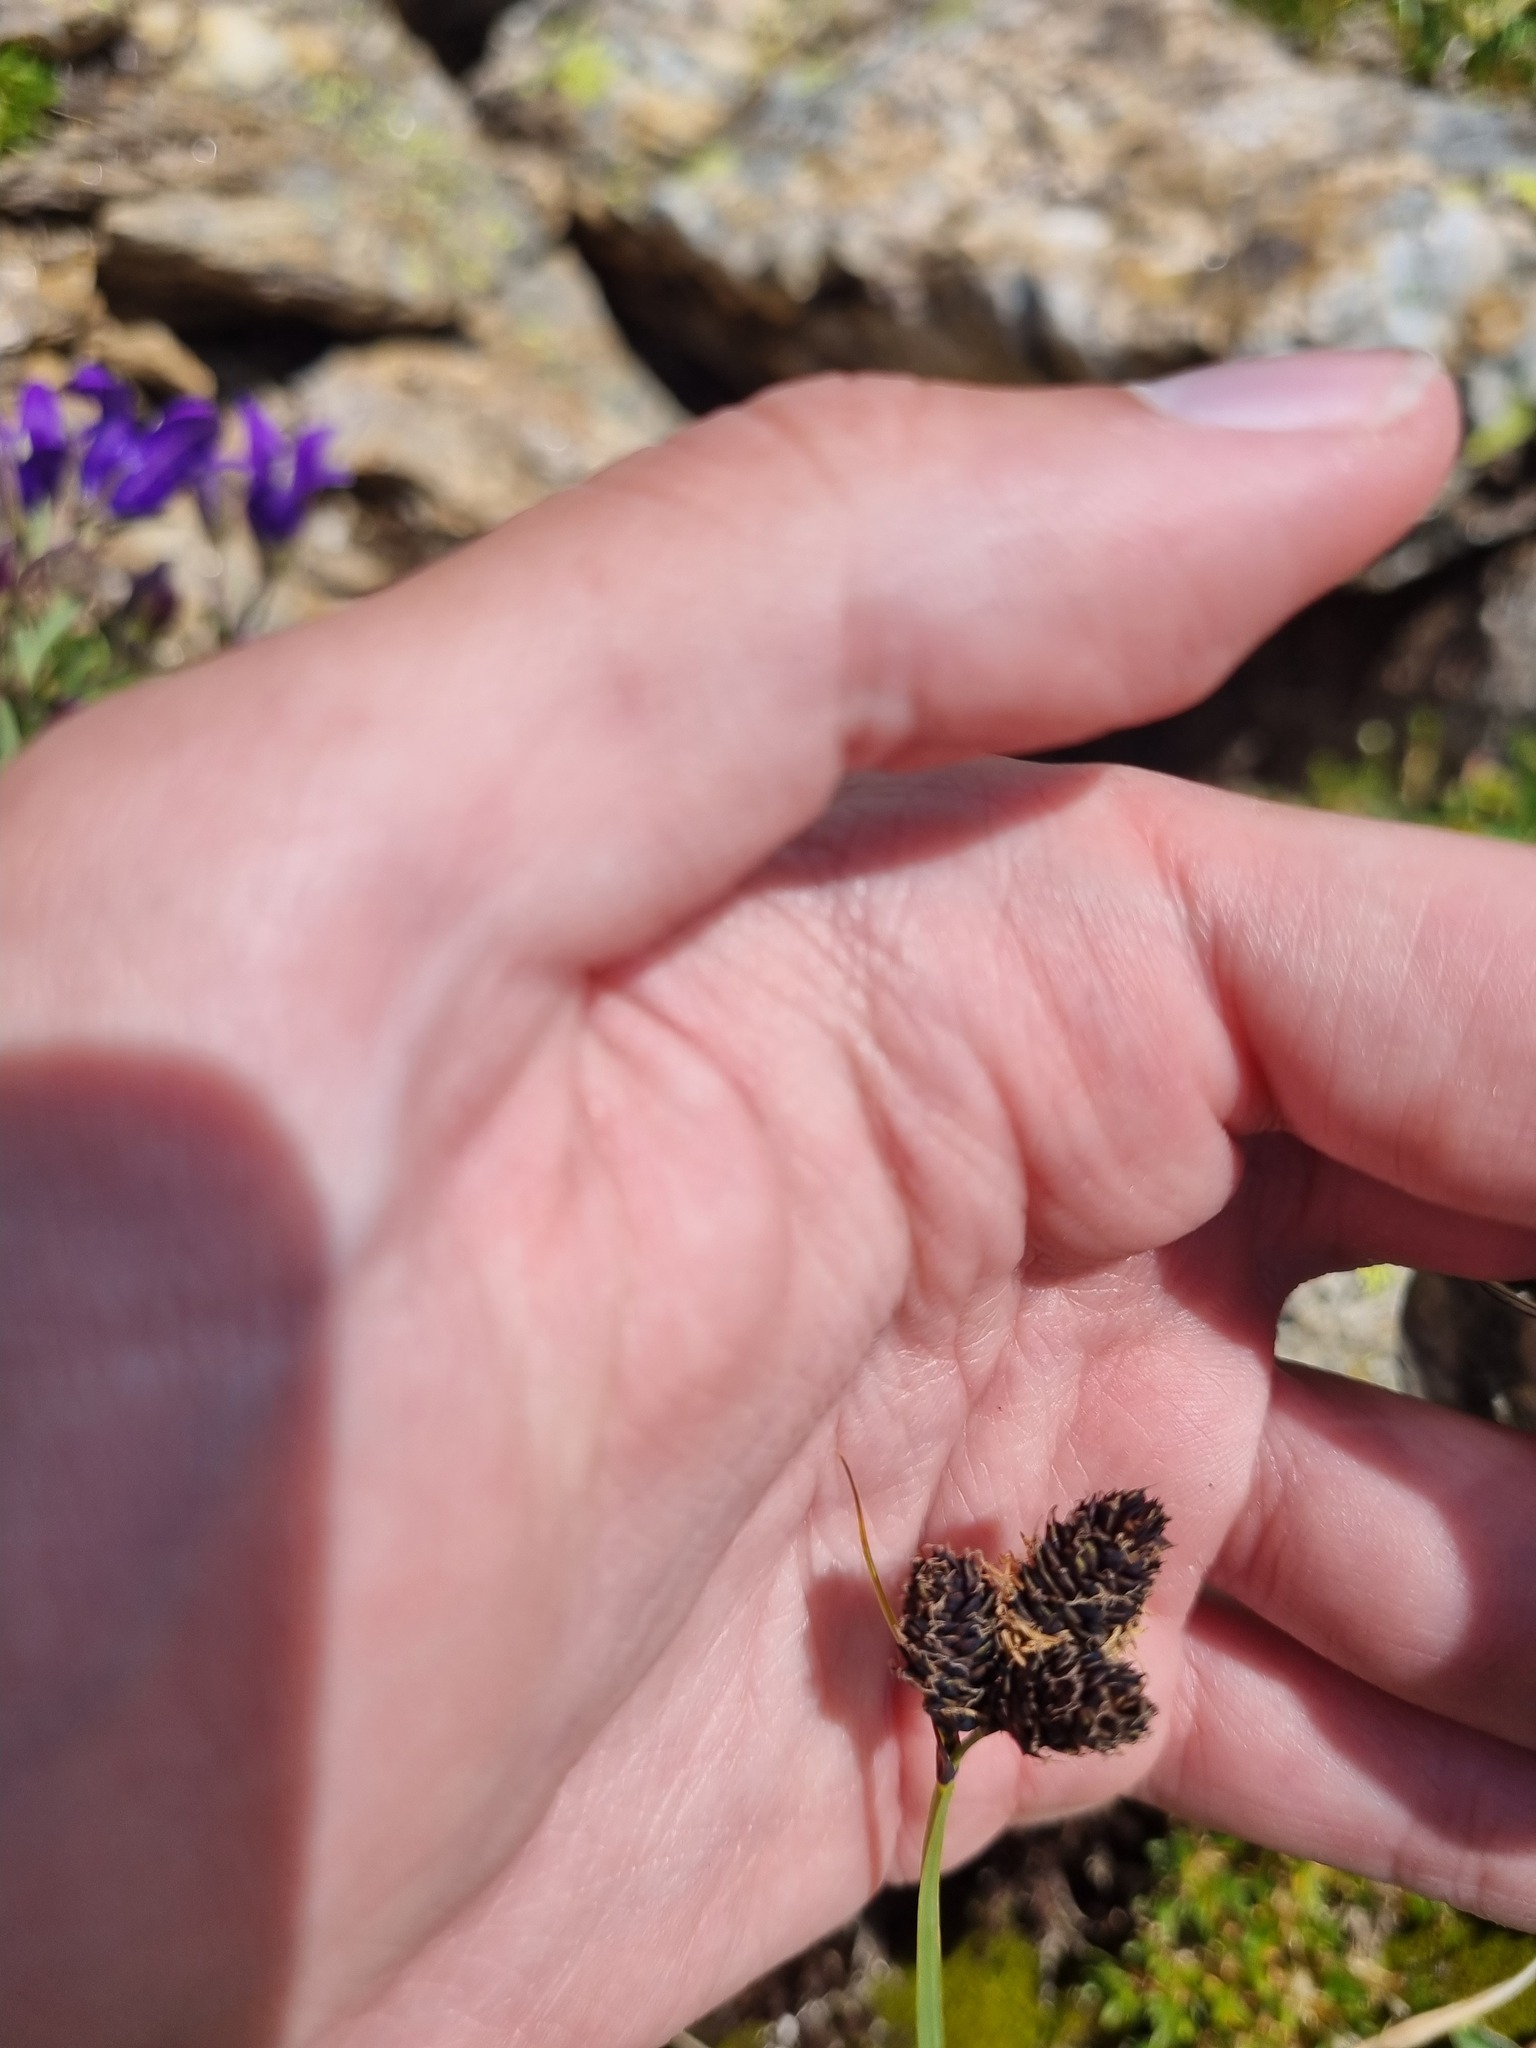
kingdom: Plantae
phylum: Tracheophyta
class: Liliopsida
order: Poales
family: Cyperaceae
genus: Carex
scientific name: Carex aterrima
